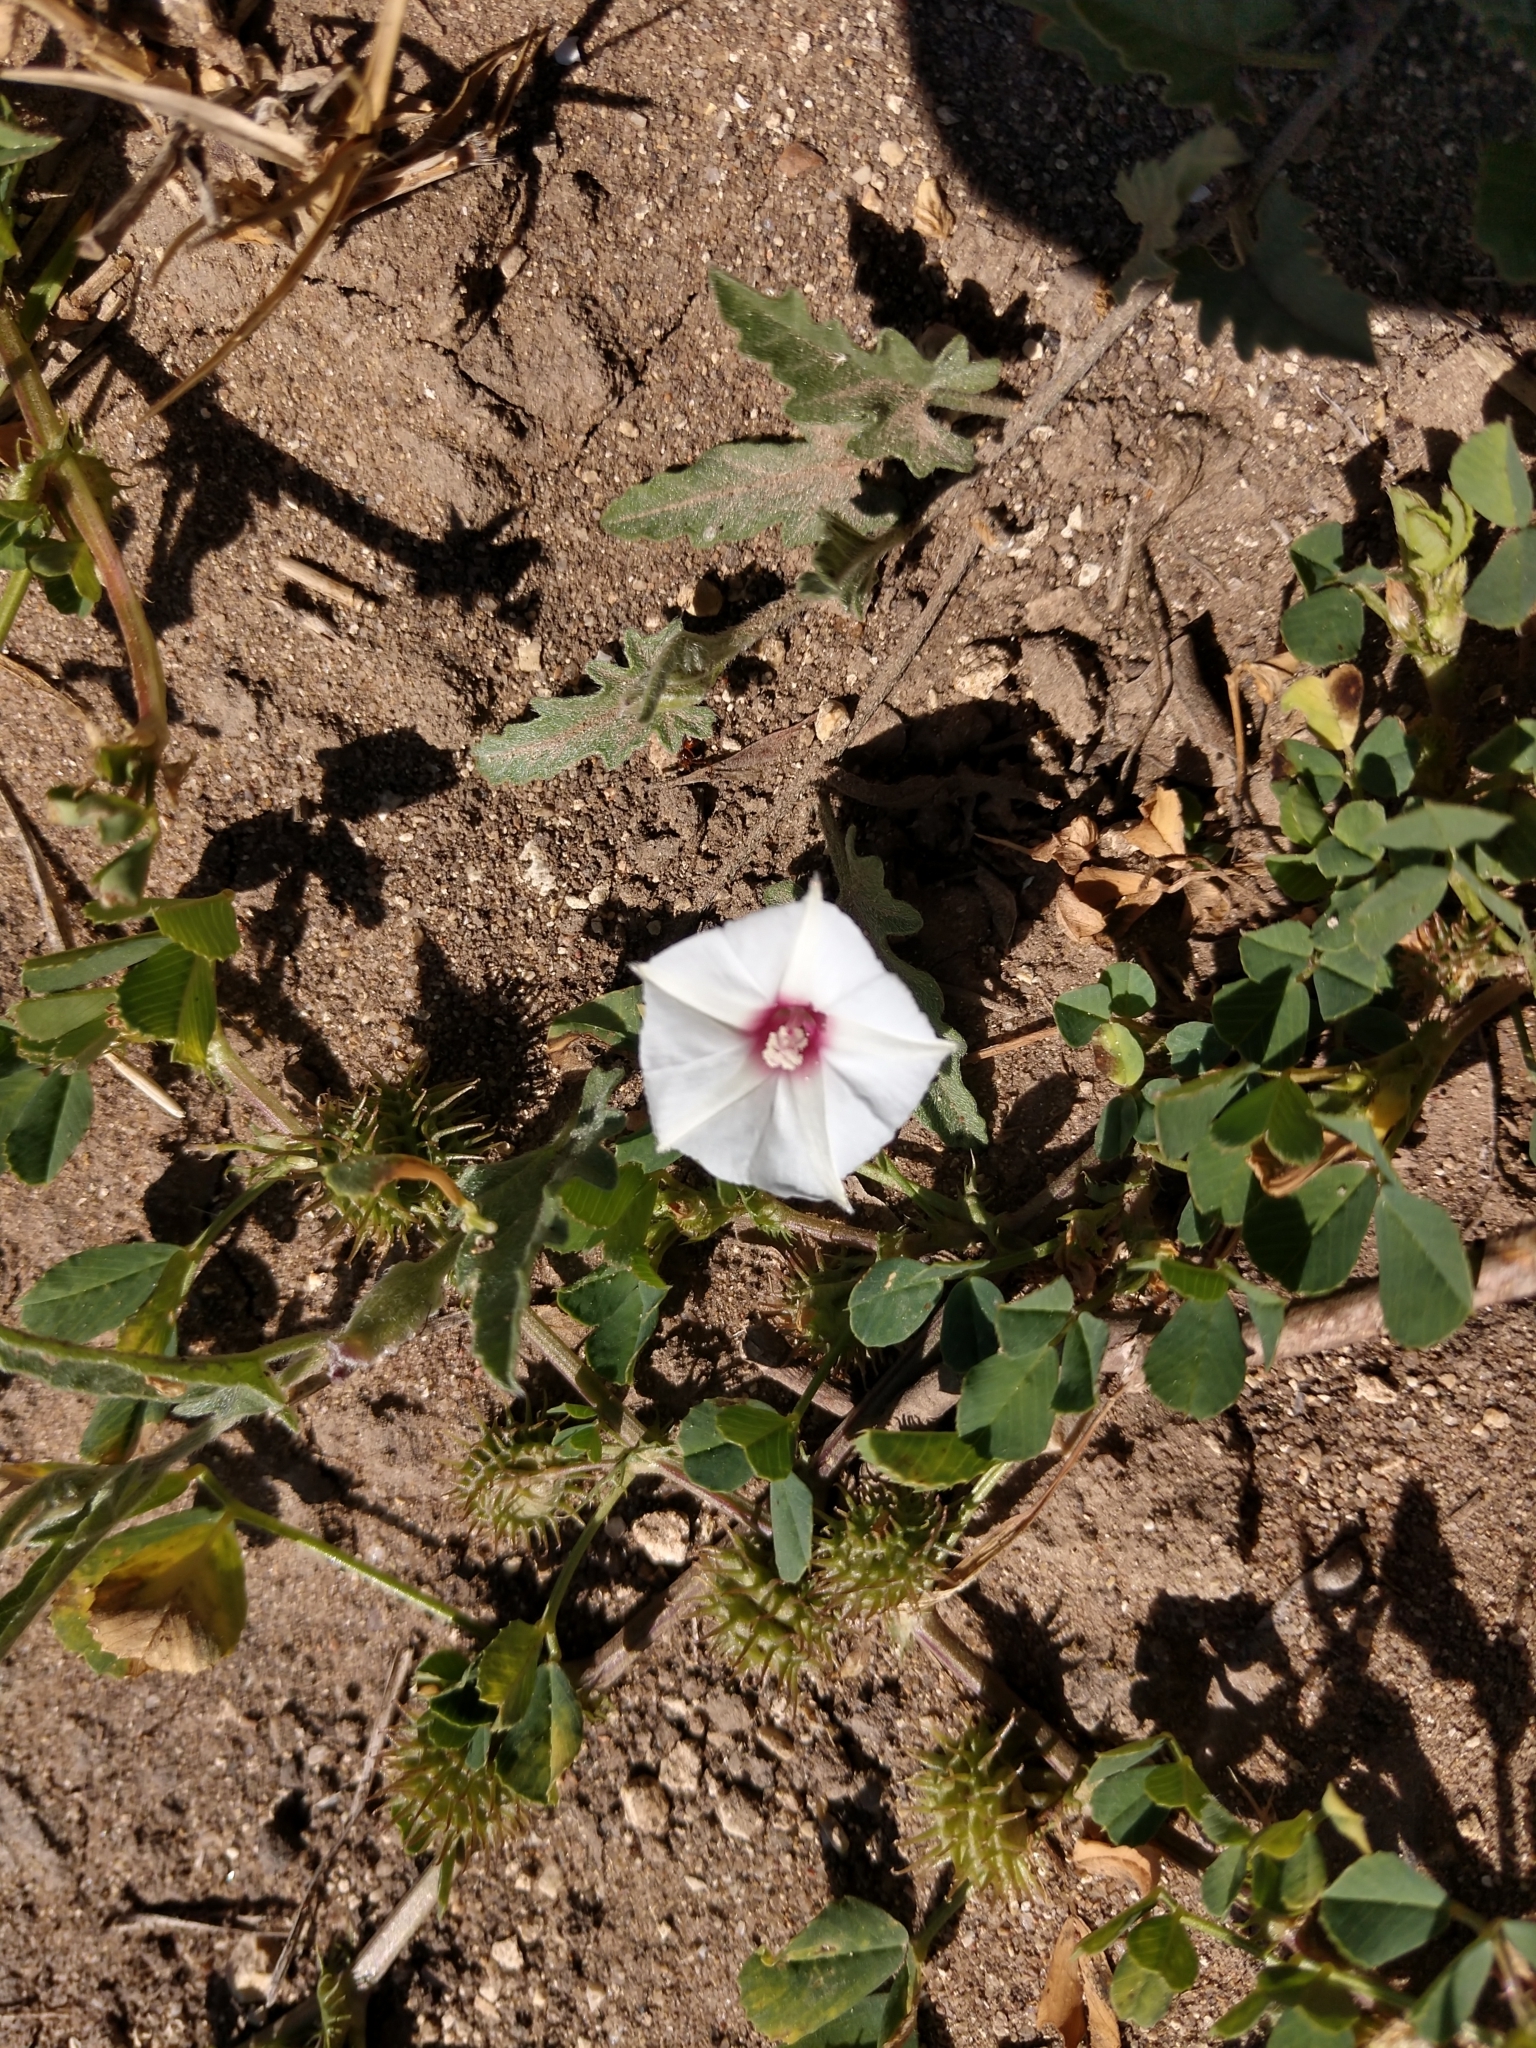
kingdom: Plantae
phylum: Tracheophyta
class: Magnoliopsida
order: Solanales
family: Convolvulaceae
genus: Convolvulus
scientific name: Convolvulus equitans
